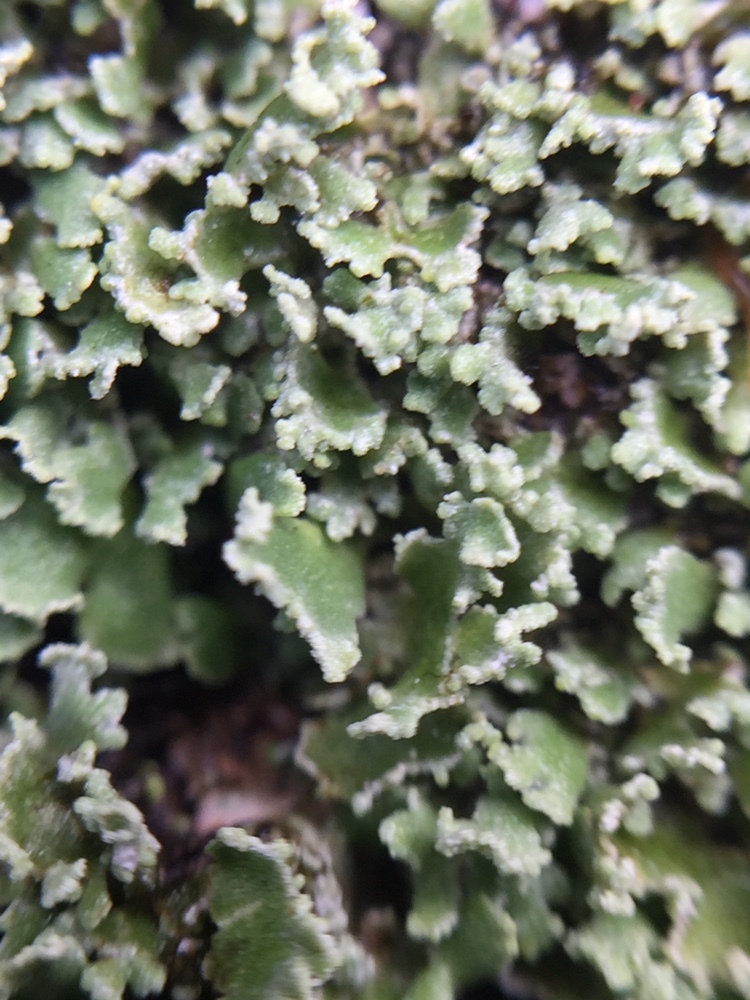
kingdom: Fungi
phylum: Ascomycota
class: Lecanoromycetes
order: Lecanorales
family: Cladoniaceae
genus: Cladonia
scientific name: Cladonia enantia
